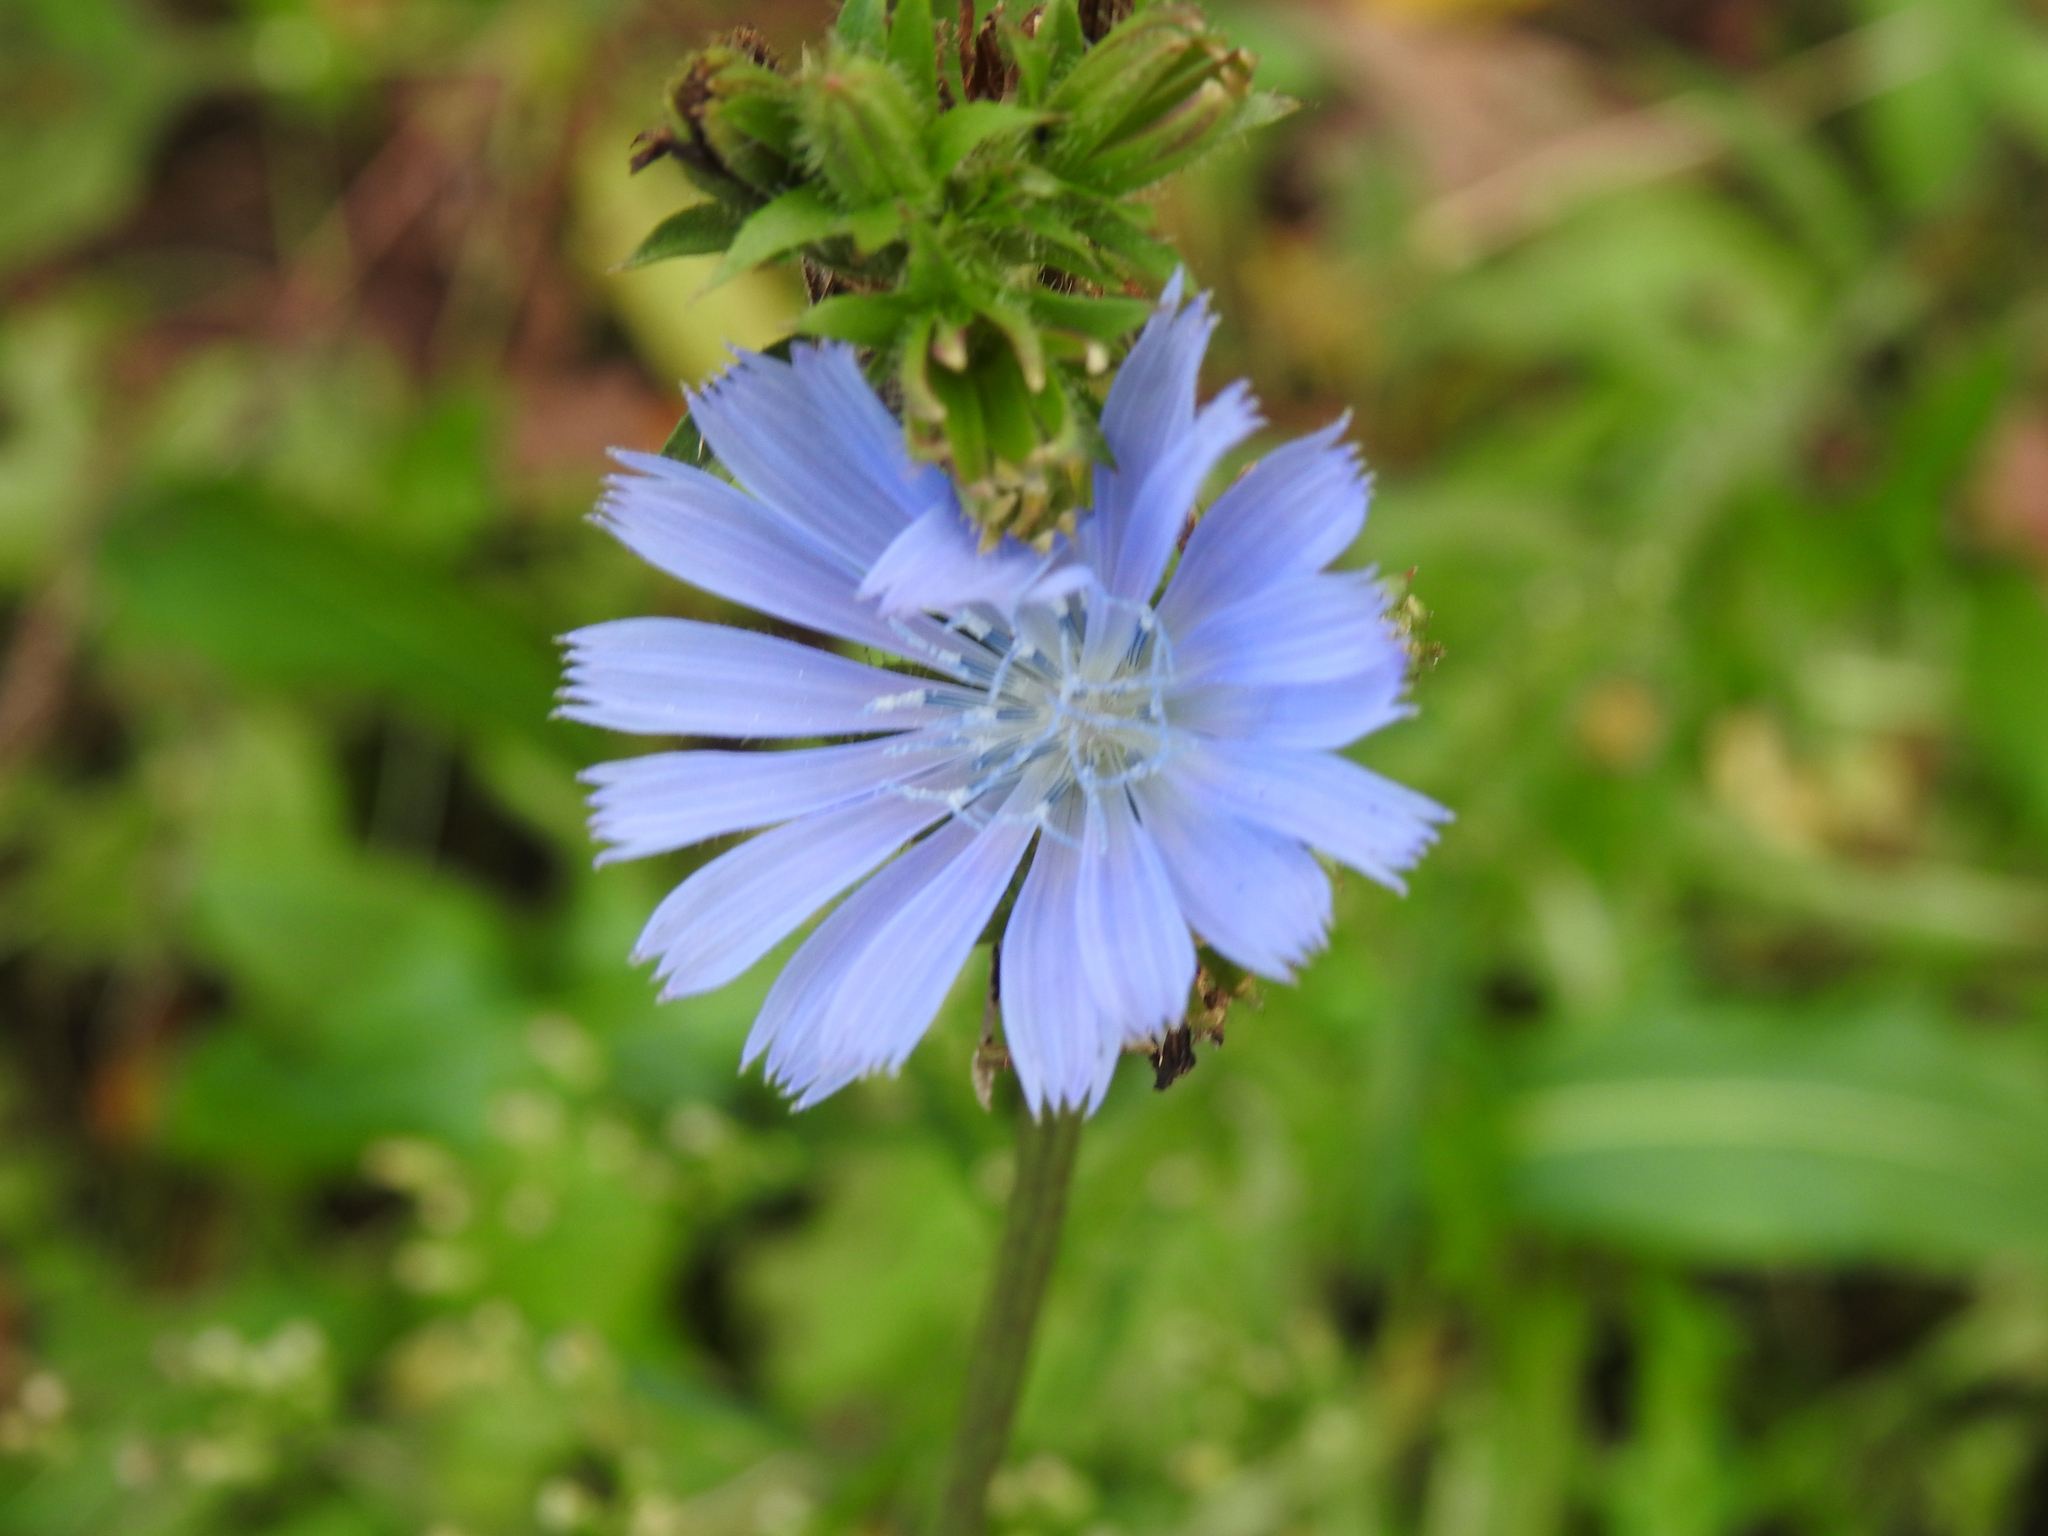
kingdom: Plantae
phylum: Tracheophyta
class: Magnoliopsida
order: Asterales
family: Asteraceae
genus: Cichorium
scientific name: Cichorium intybus
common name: Chicory
